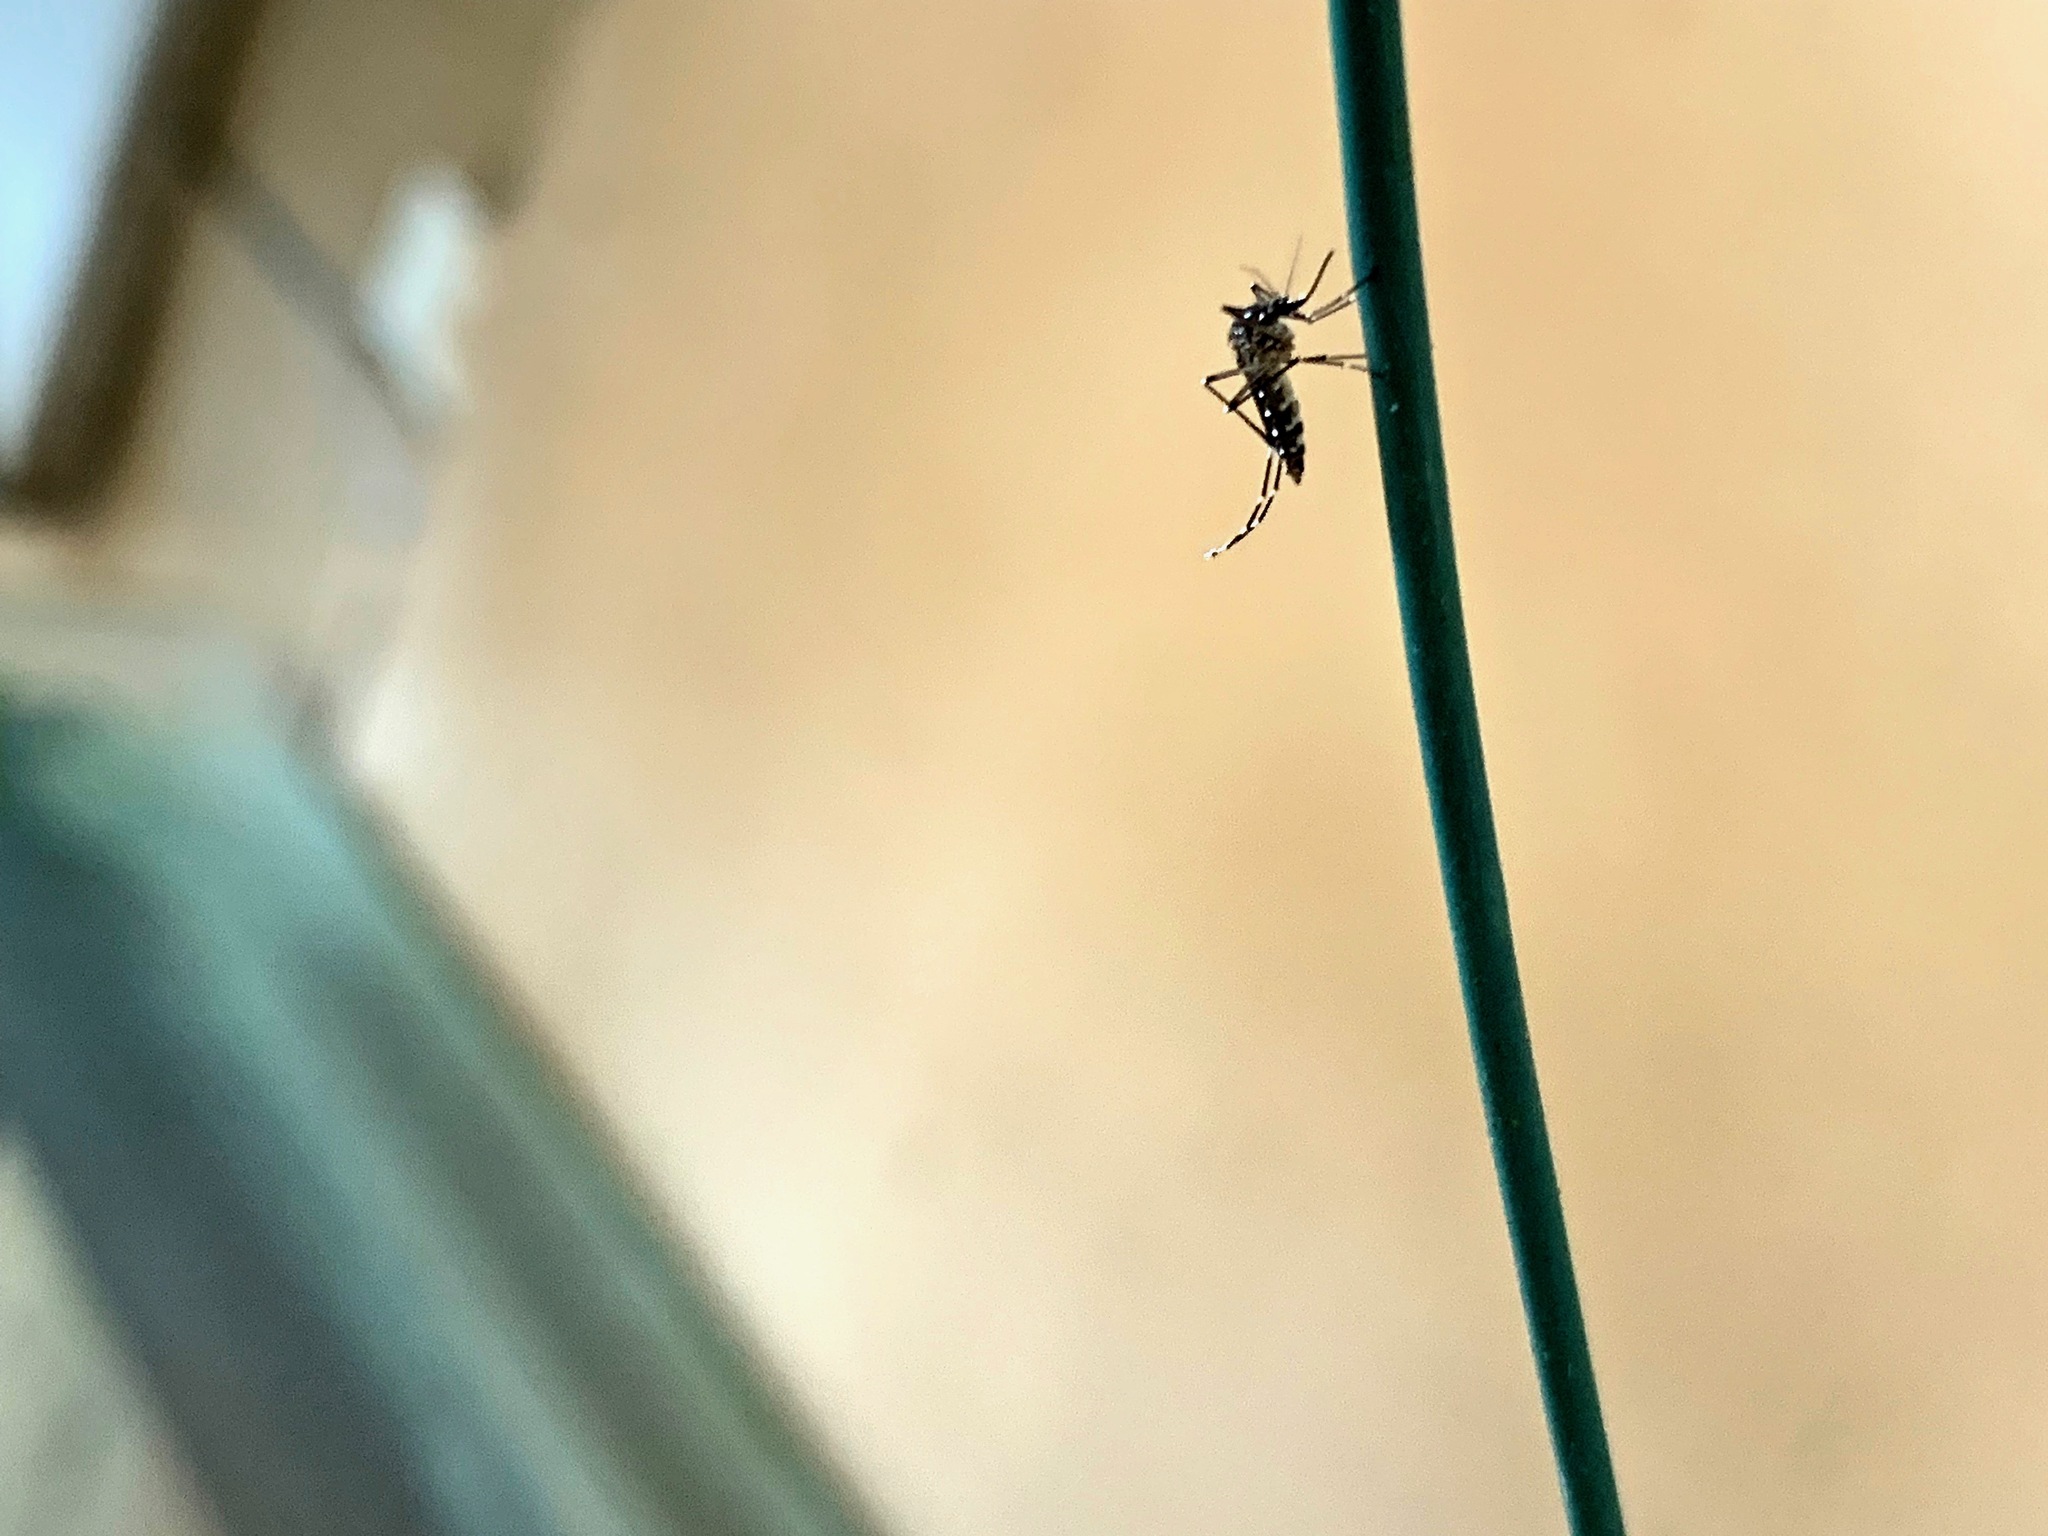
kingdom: Animalia
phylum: Arthropoda
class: Insecta
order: Diptera
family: Culicidae
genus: Aedes
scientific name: Aedes aegypti
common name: Yellow fever mosquito
